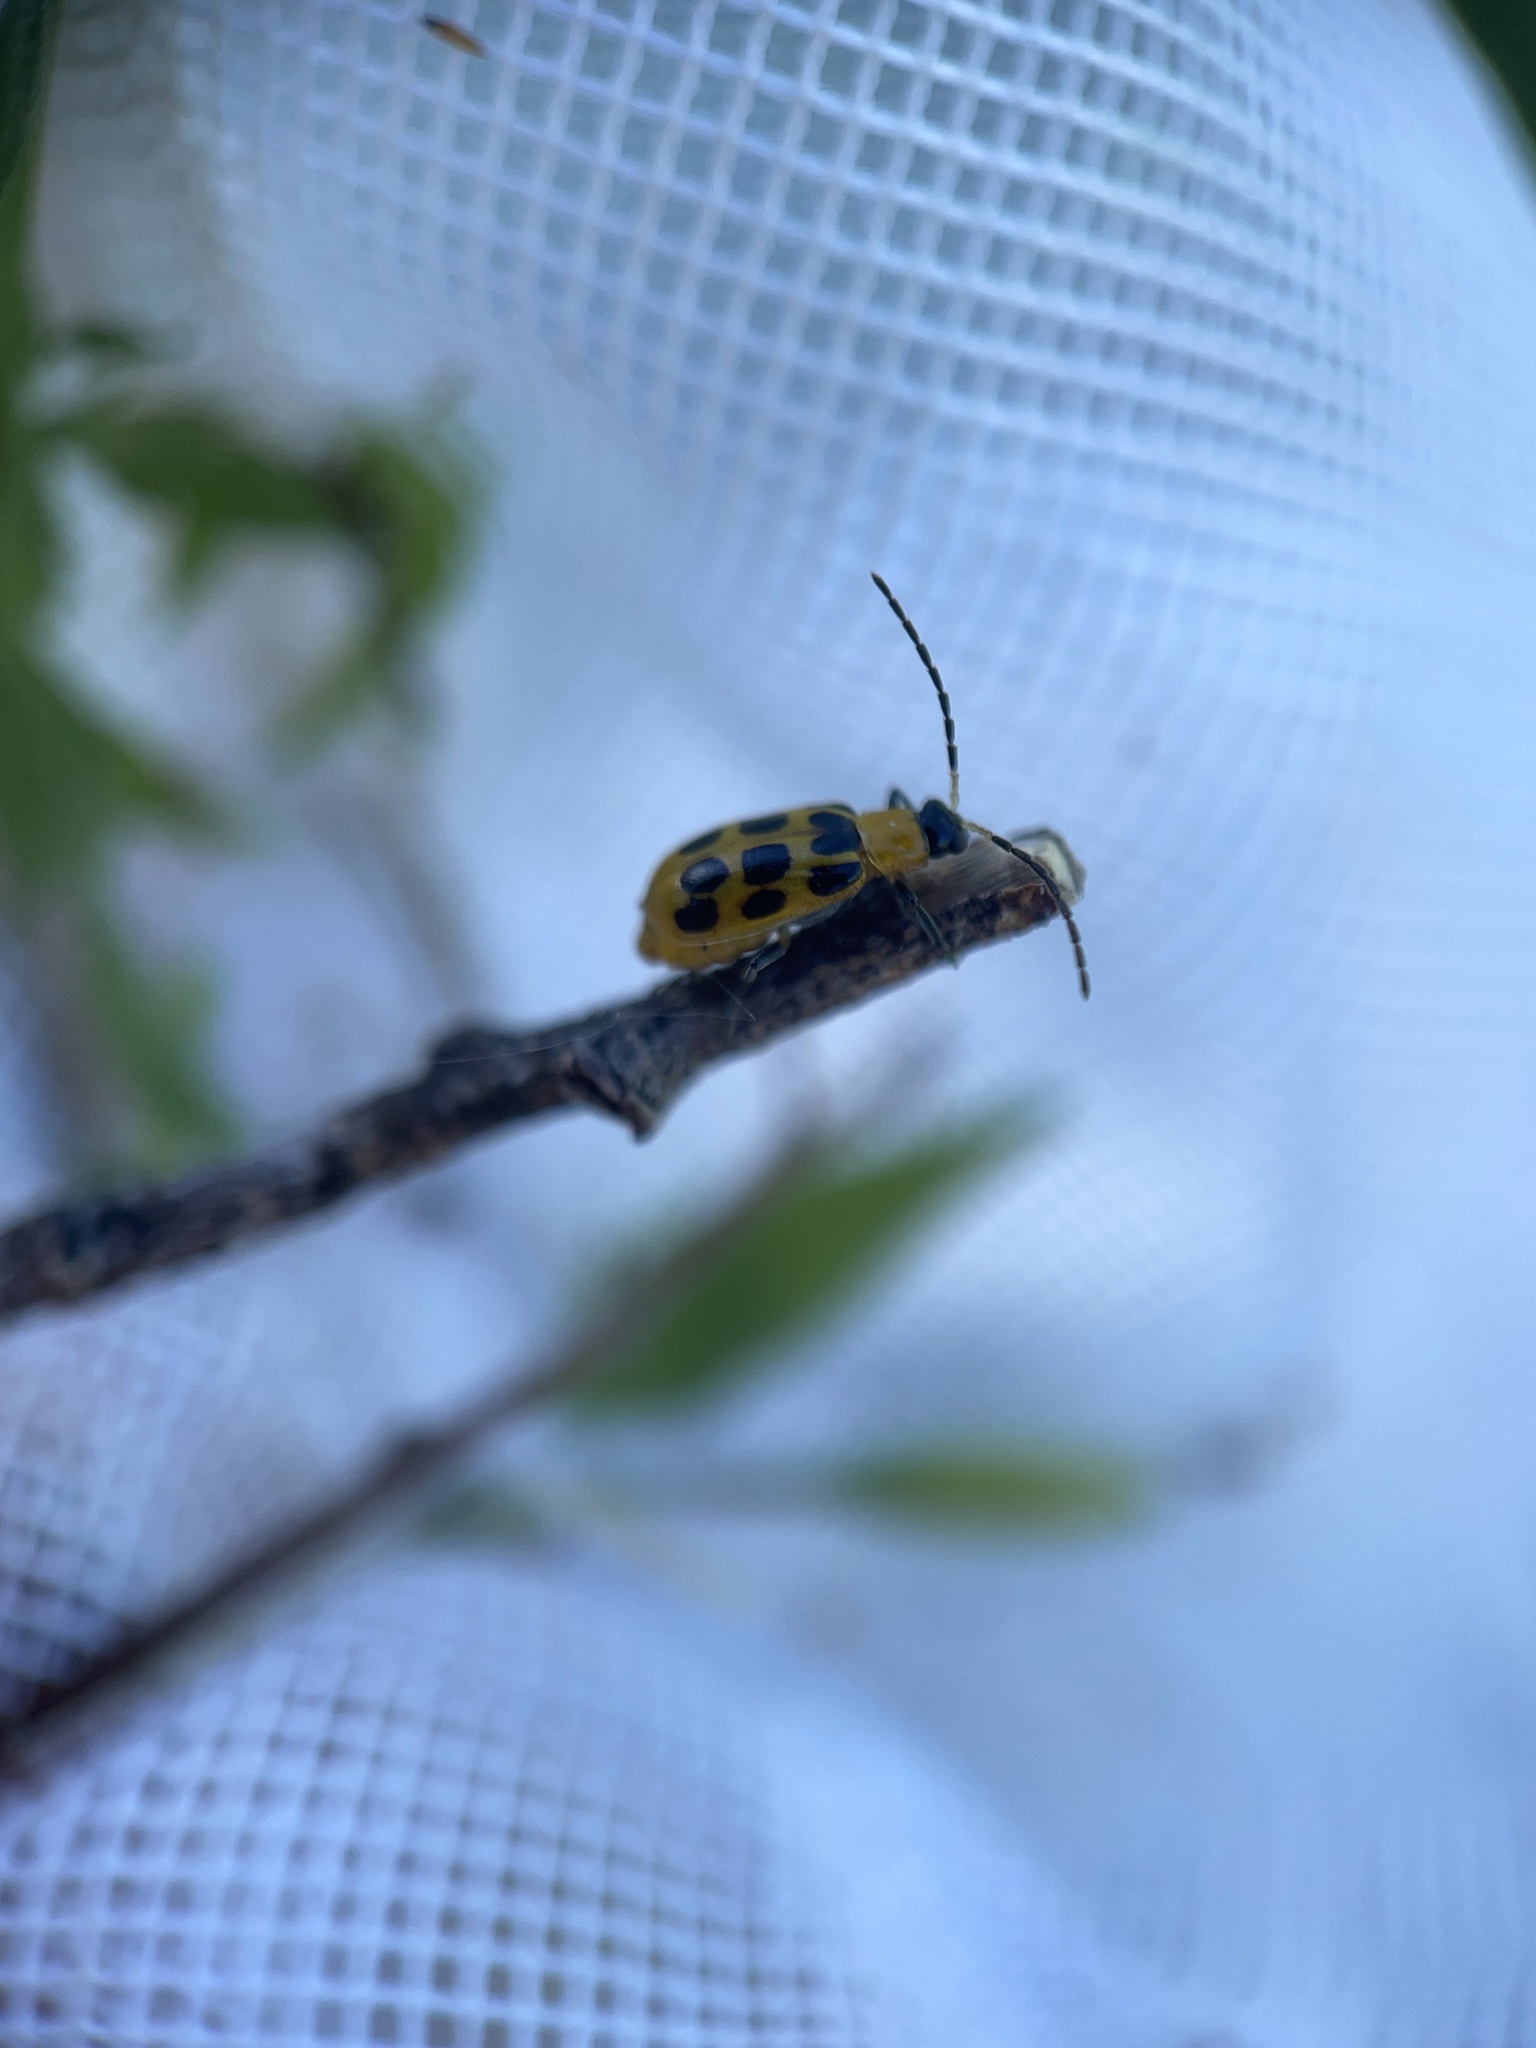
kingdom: Animalia
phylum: Arthropoda
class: Insecta
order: Coleoptera
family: Chrysomelidae
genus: Diabrotica
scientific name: Diabrotica undecimpunctata
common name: Spotted cucumber beetle
